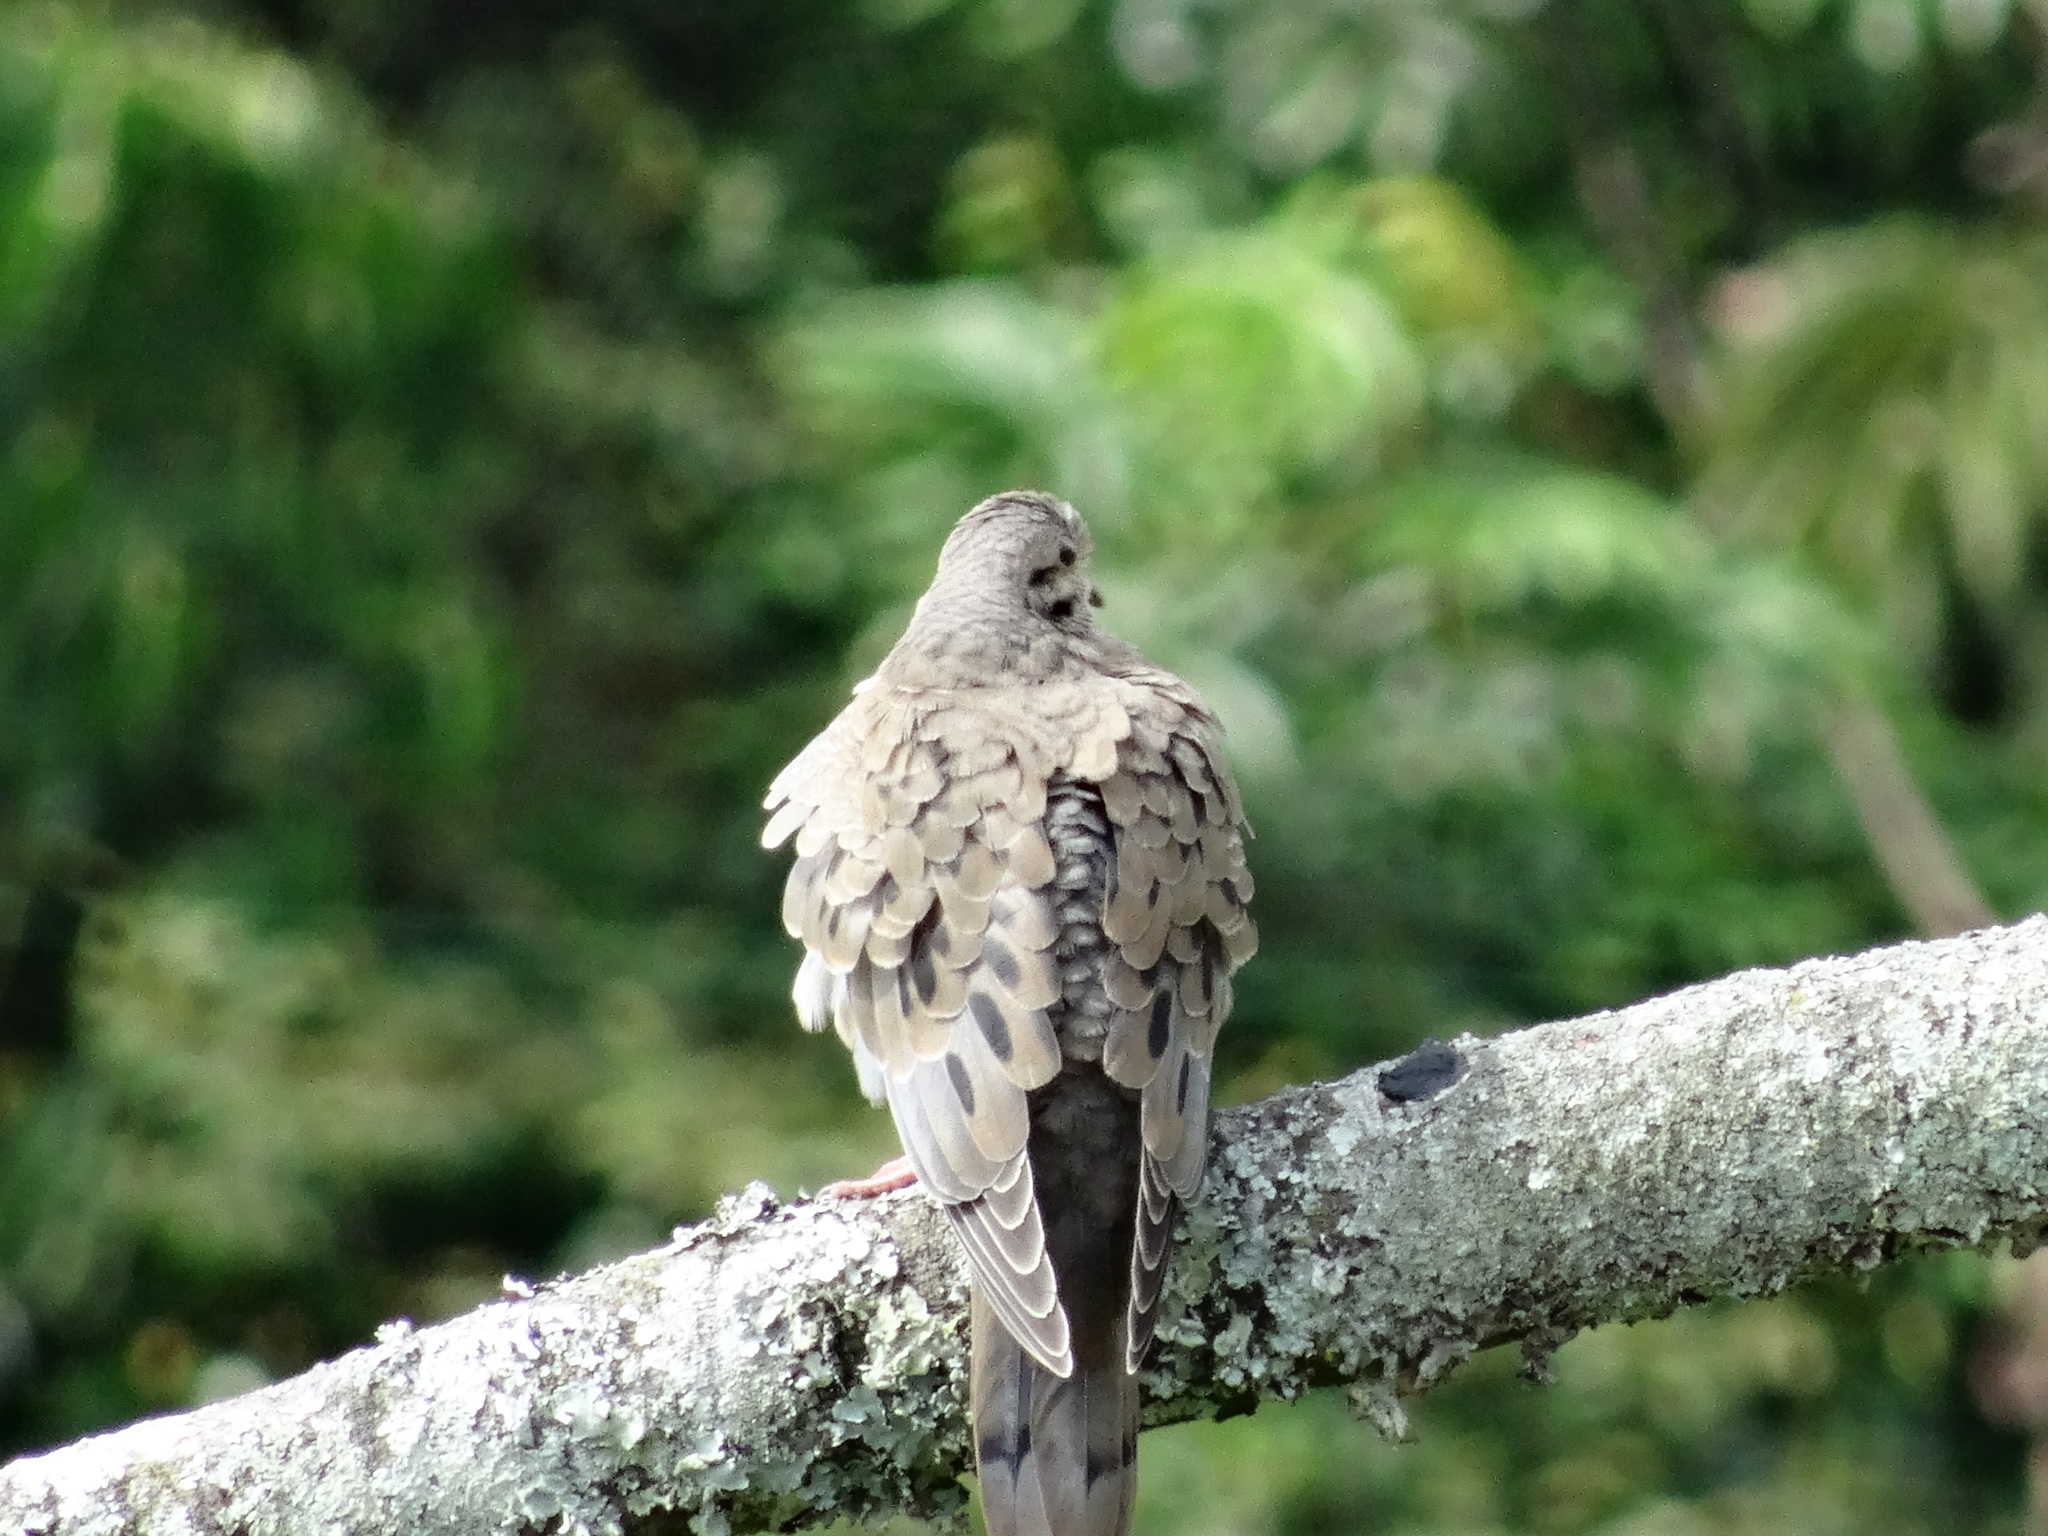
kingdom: Animalia
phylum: Chordata
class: Aves
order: Columbiformes
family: Columbidae
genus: Zenaida
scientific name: Zenaida auriculata
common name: Eared dove
